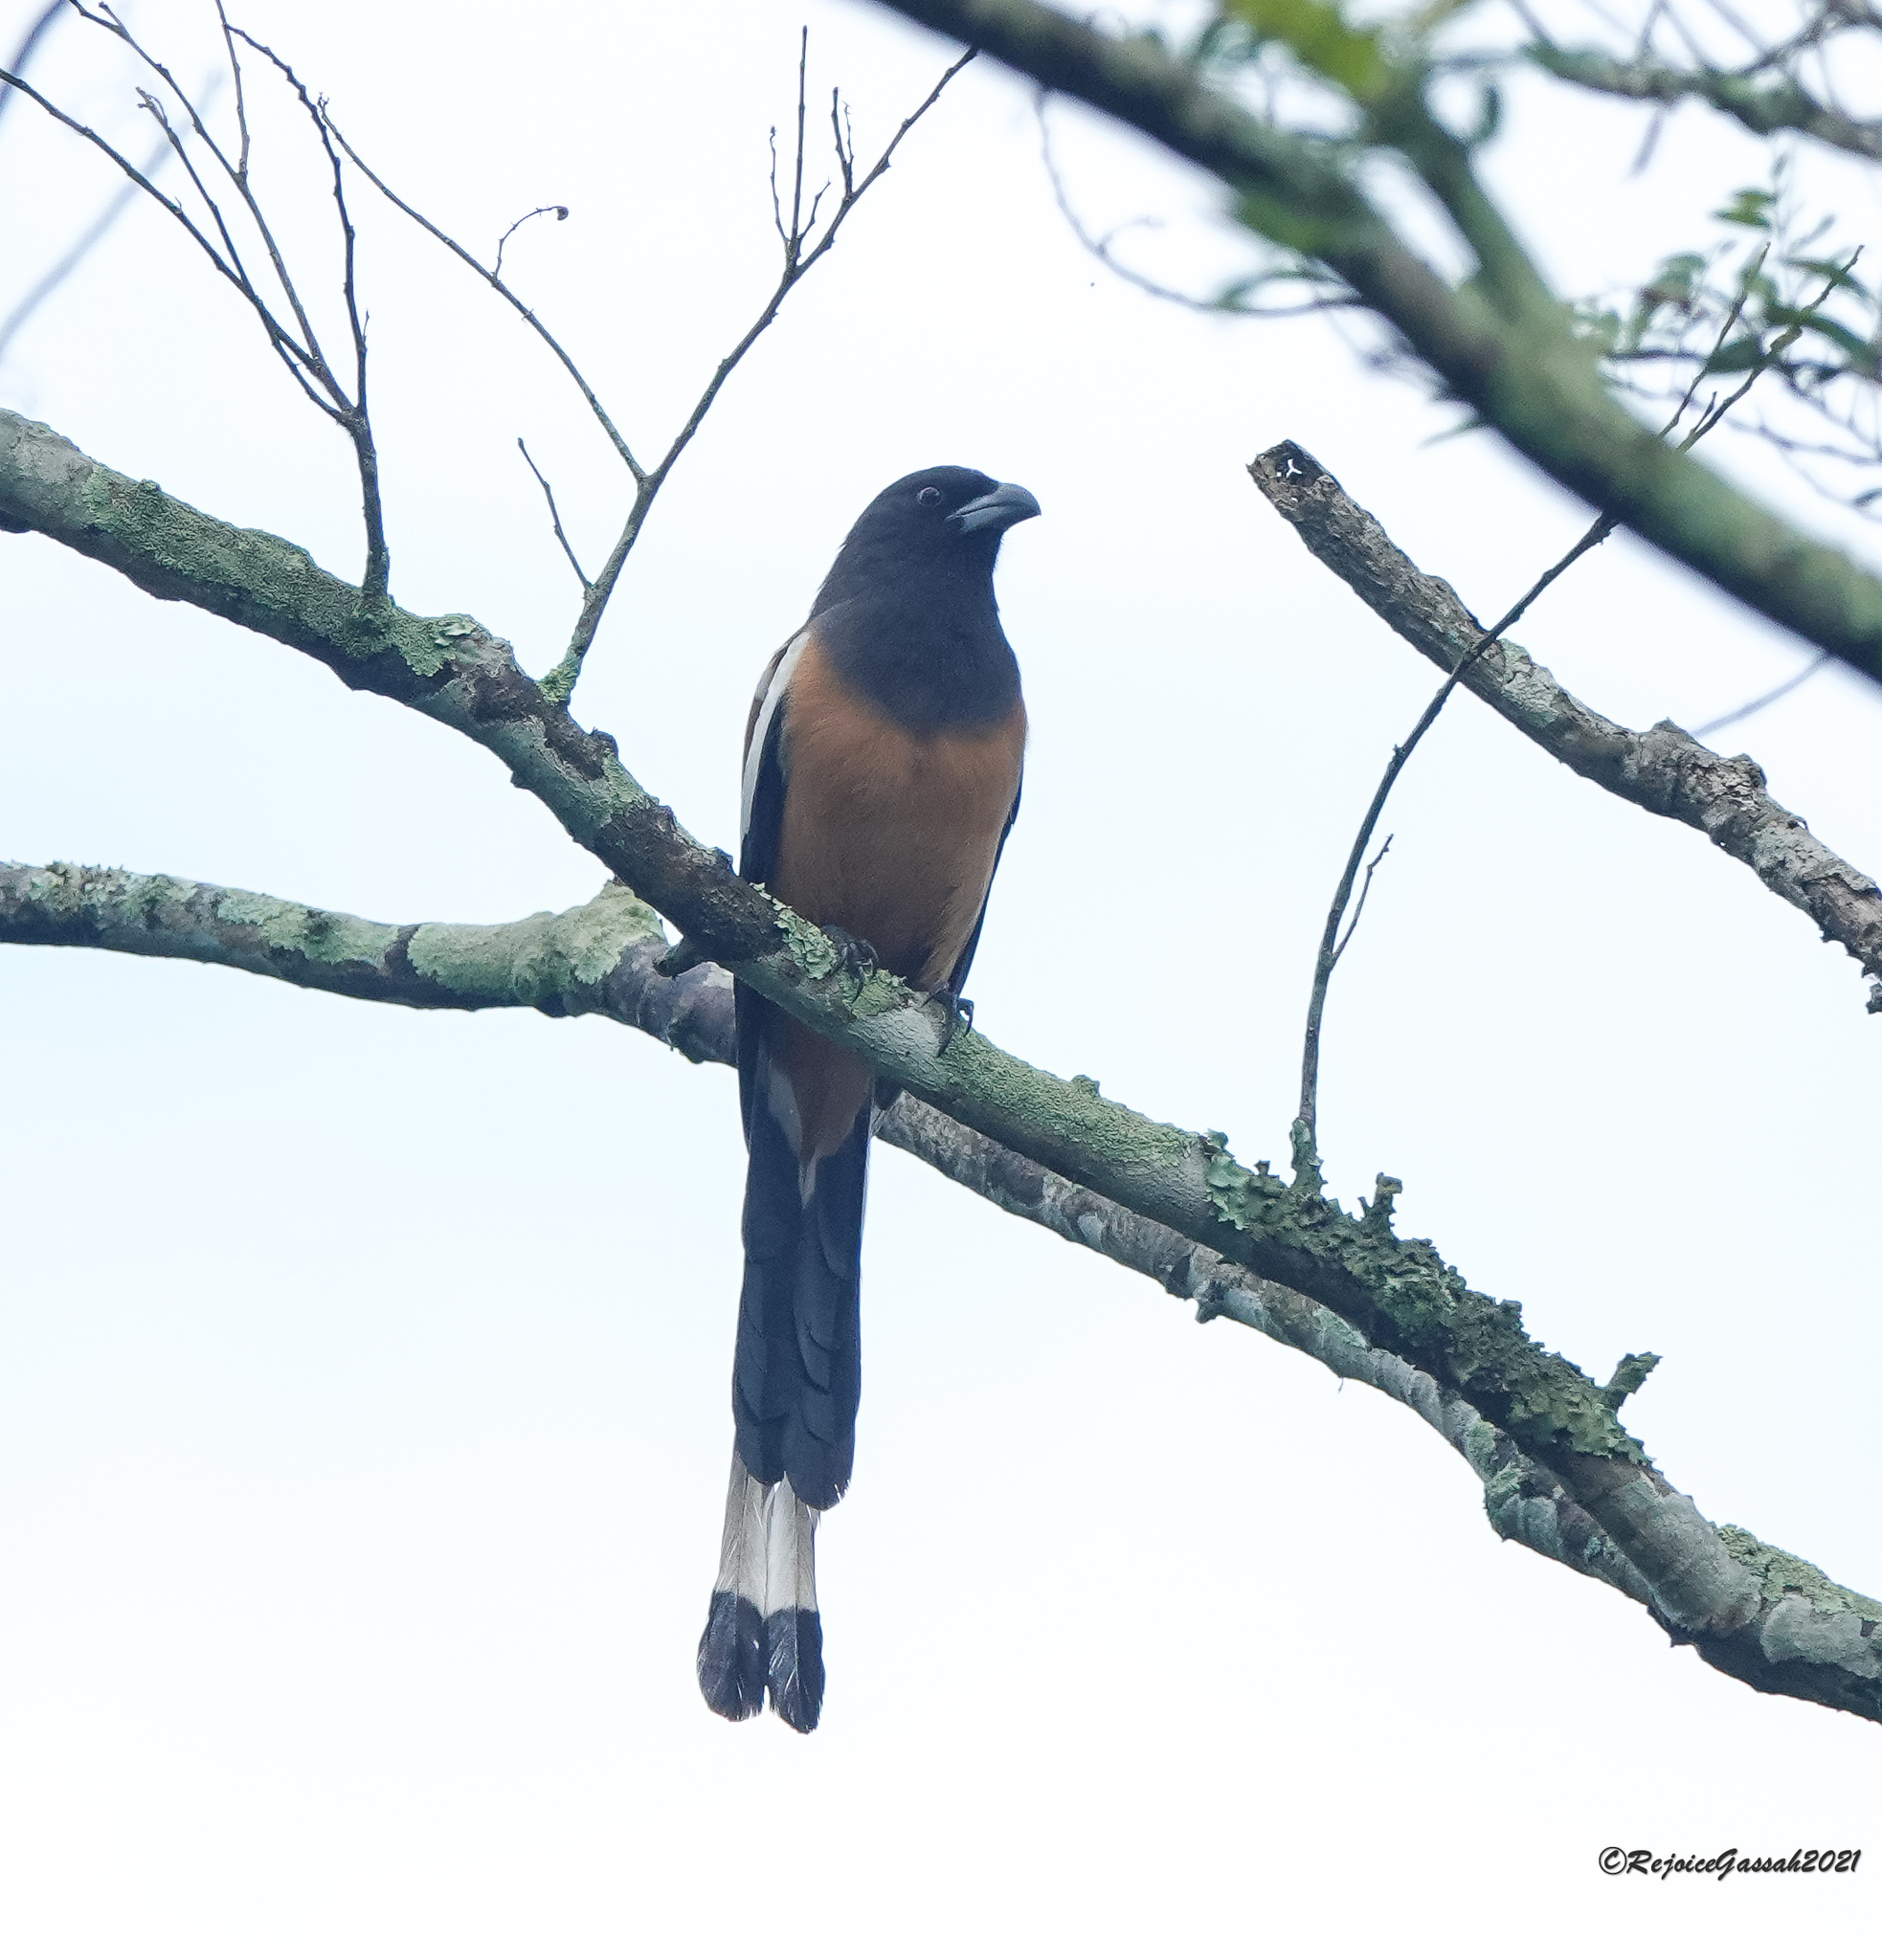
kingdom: Animalia
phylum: Chordata
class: Aves
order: Passeriformes
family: Corvidae
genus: Dendrocitta
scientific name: Dendrocitta vagabunda
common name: Rufous treepie
